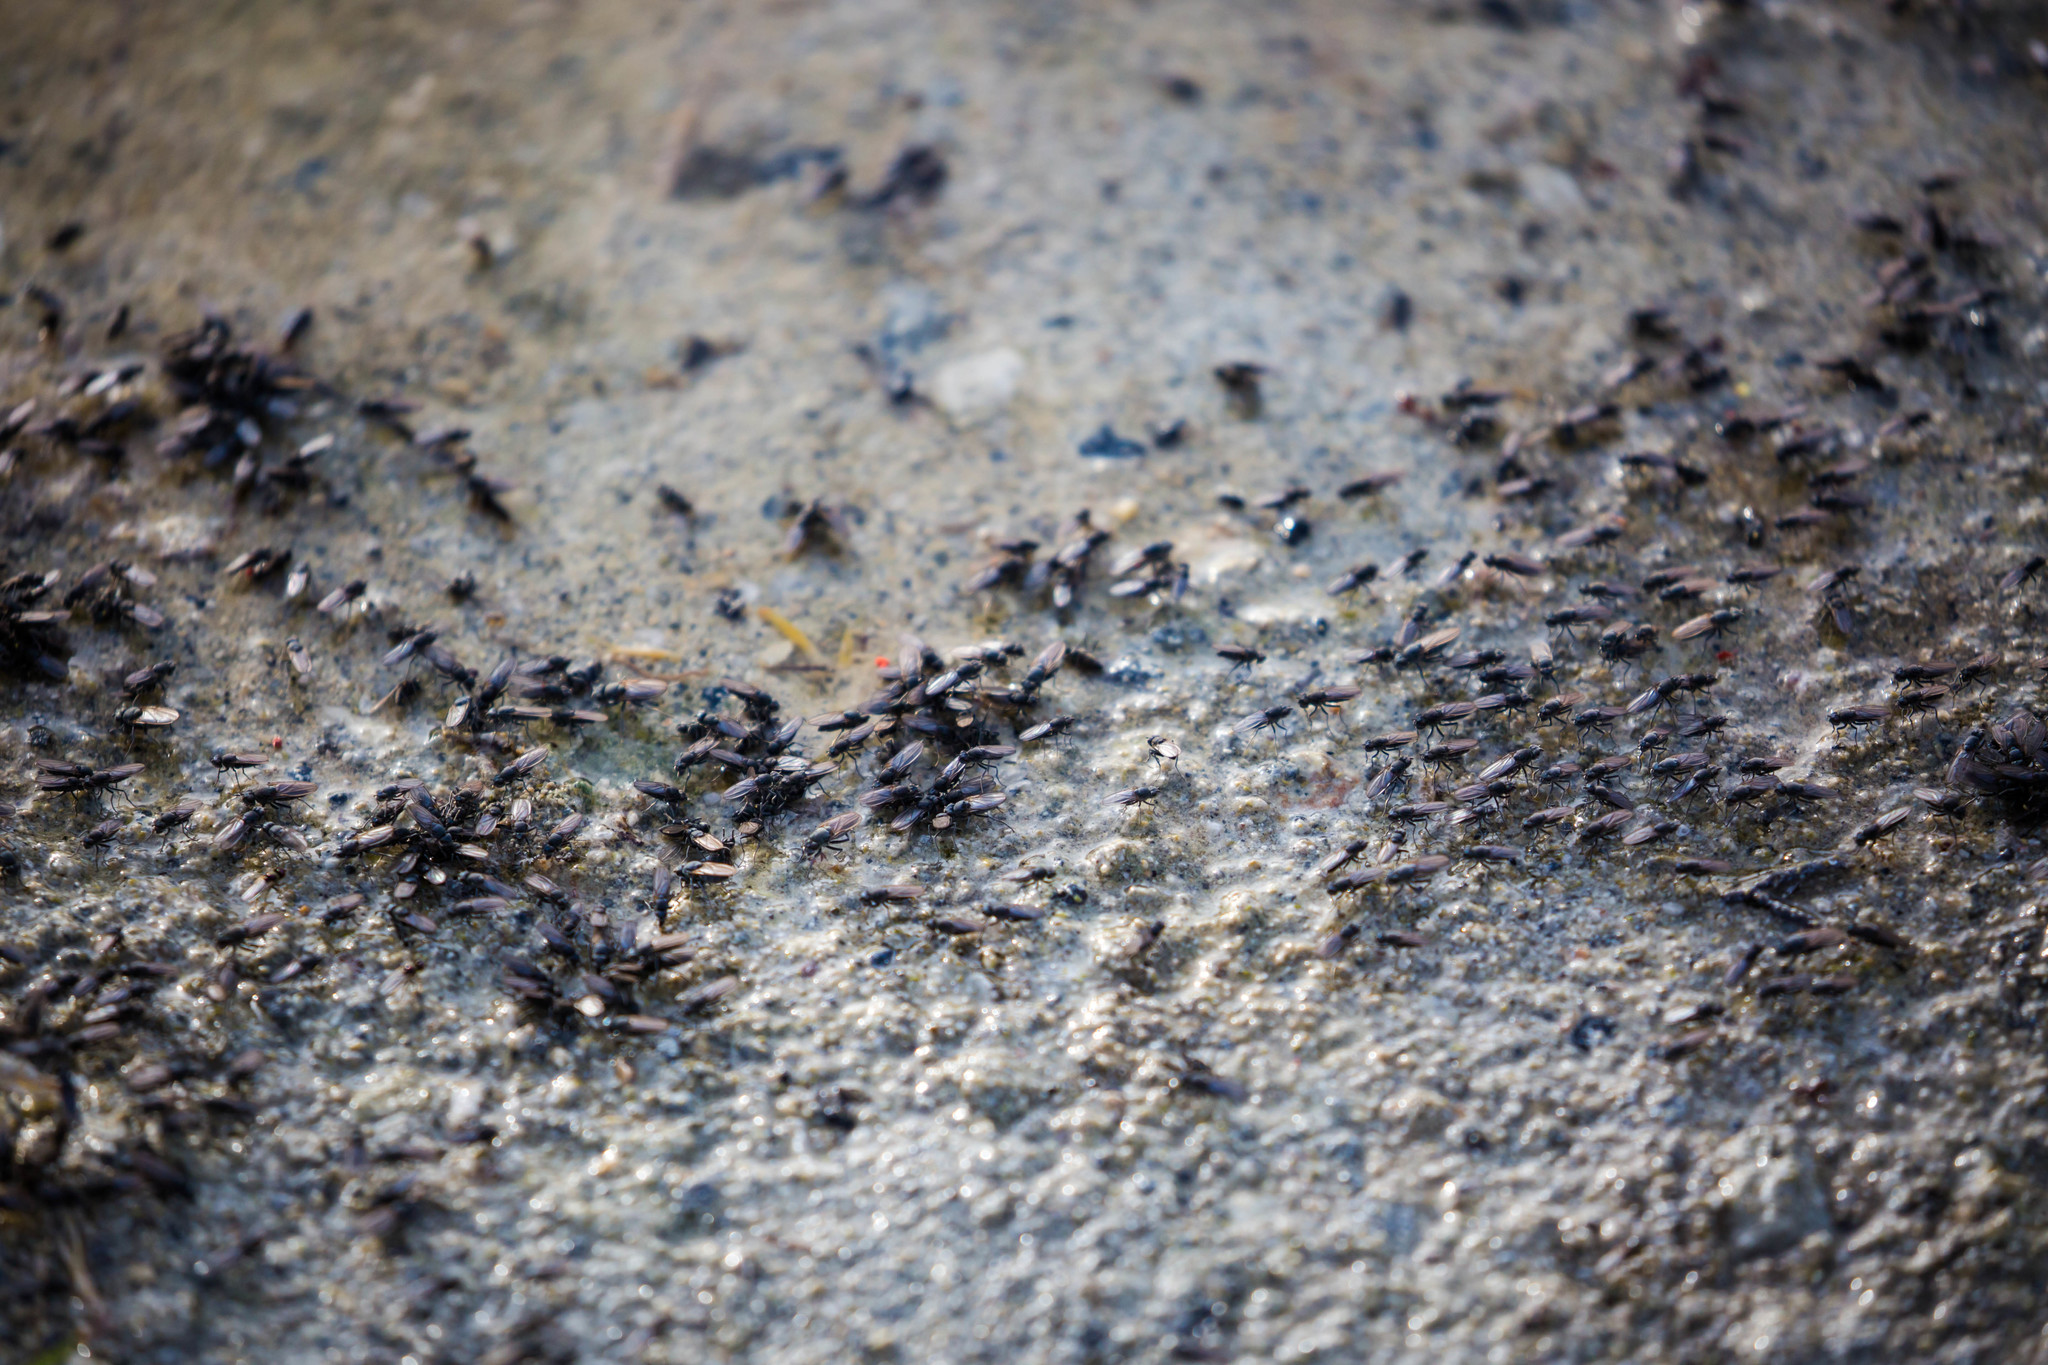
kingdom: Animalia
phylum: Arthropoda
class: Insecta
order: Diptera
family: Ephydridae
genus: Cirrula
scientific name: Cirrula hians
